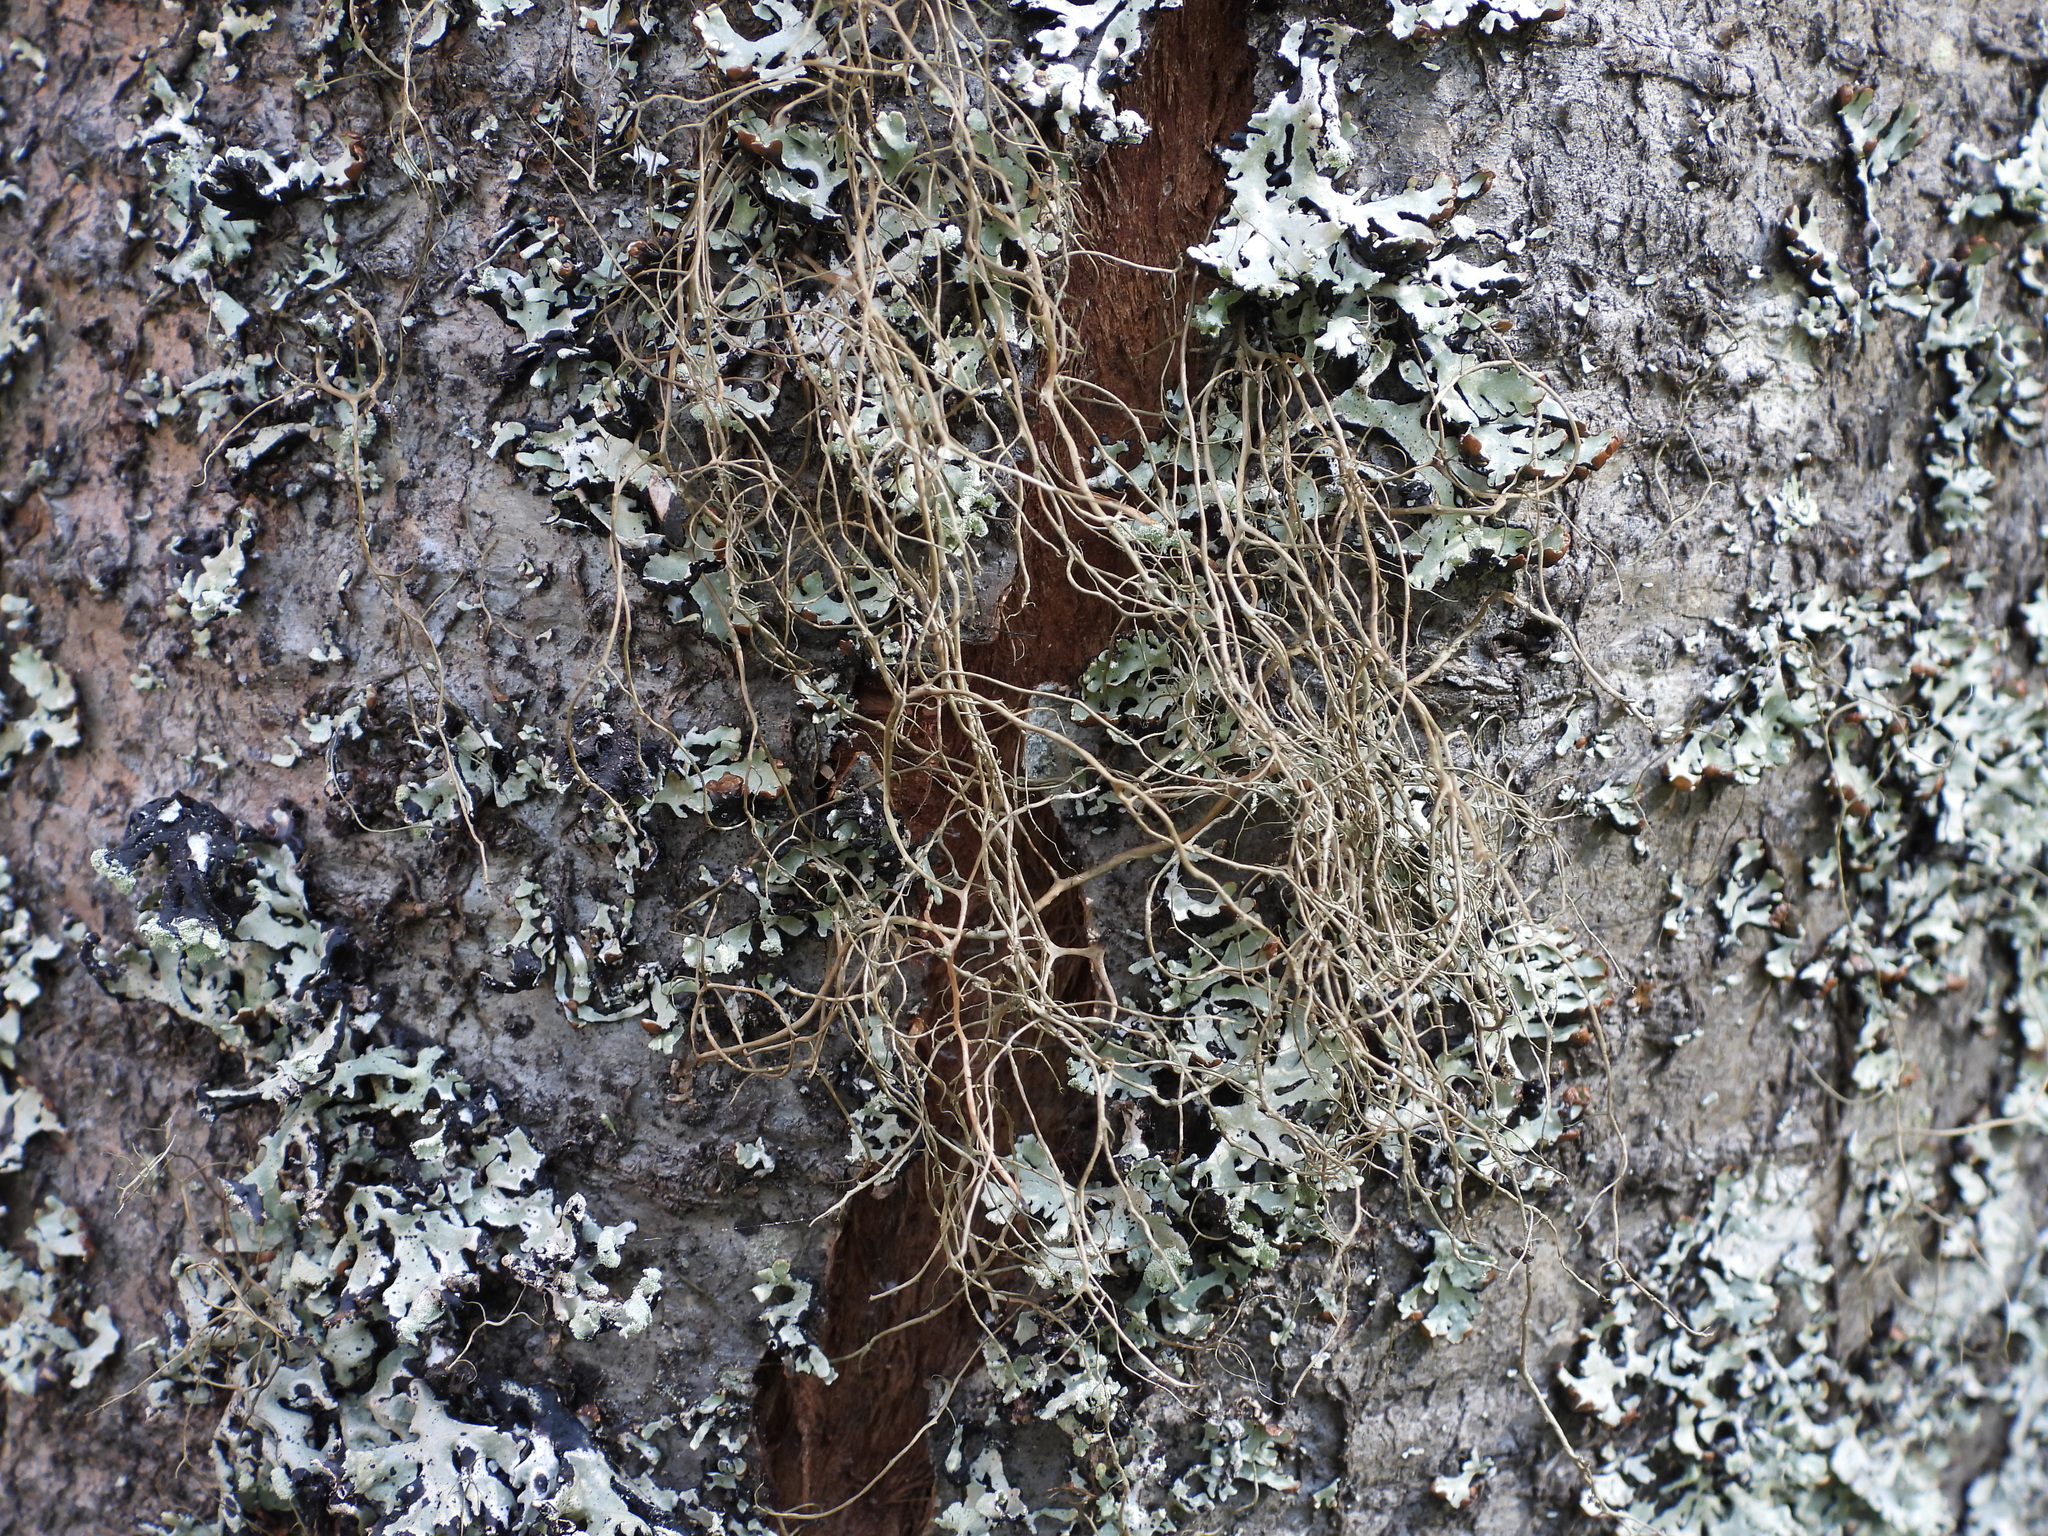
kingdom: Fungi
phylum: Ascomycota
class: Lecanoromycetes
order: Lecanorales
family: Parmeliaceae
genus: Bryoria
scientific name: Bryoria fuscescens
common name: Pale-footed horsehair lichen
